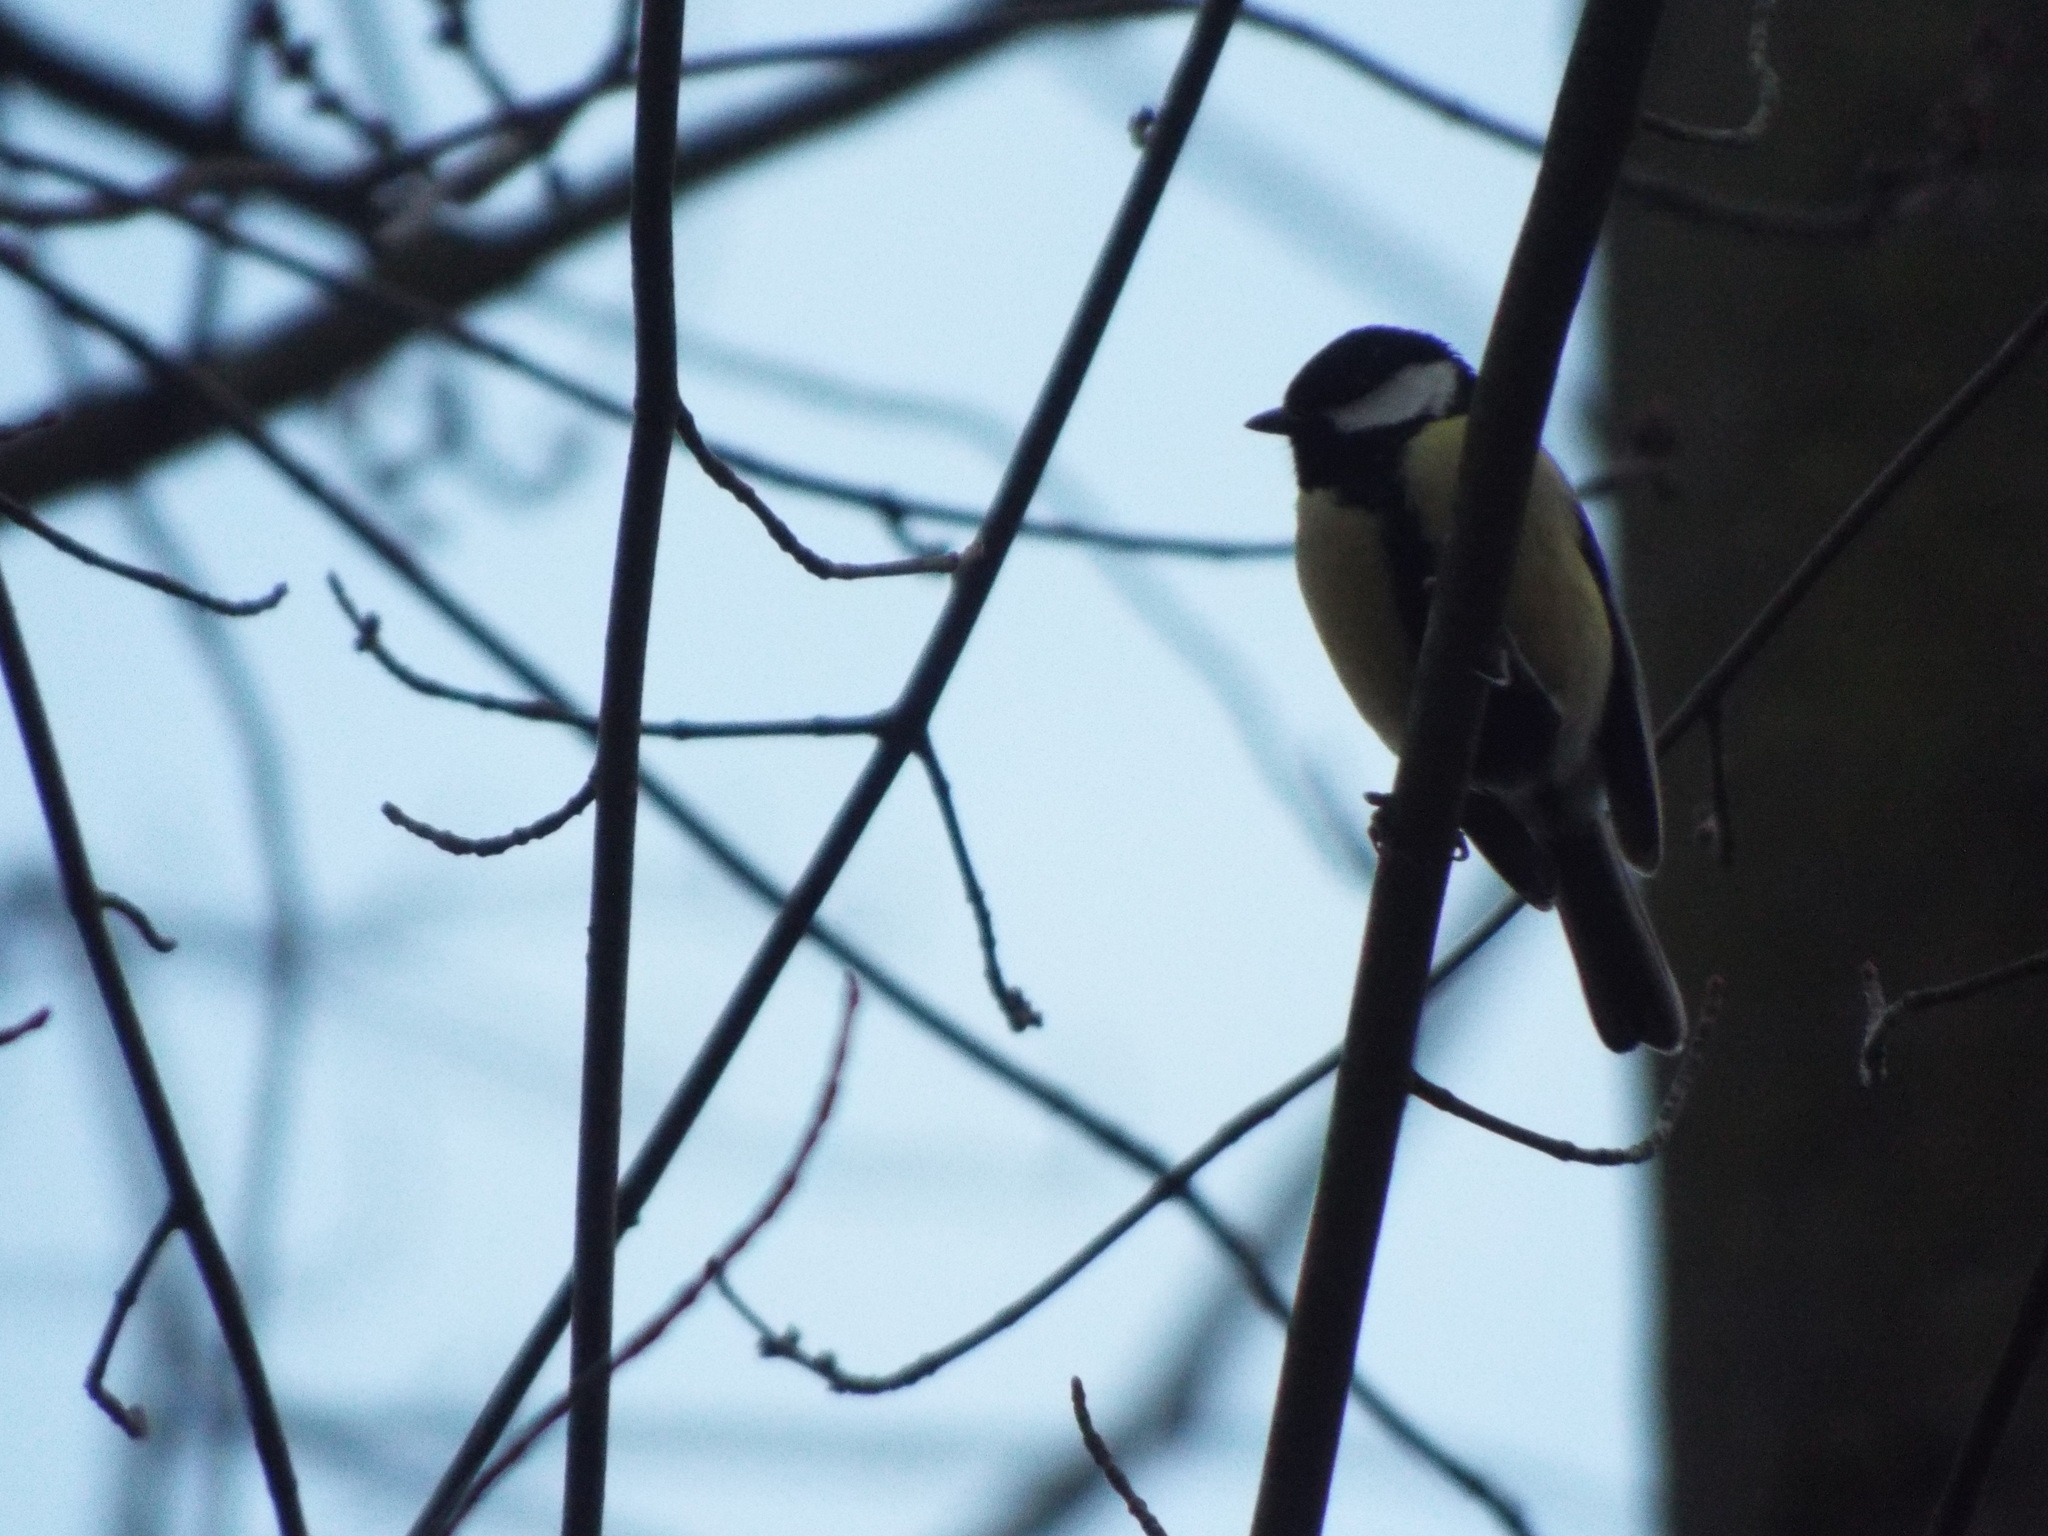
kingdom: Animalia
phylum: Chordata
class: Aves
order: Passeriformes
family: Paridae
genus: Parus
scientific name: Parus major
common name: Great tit
